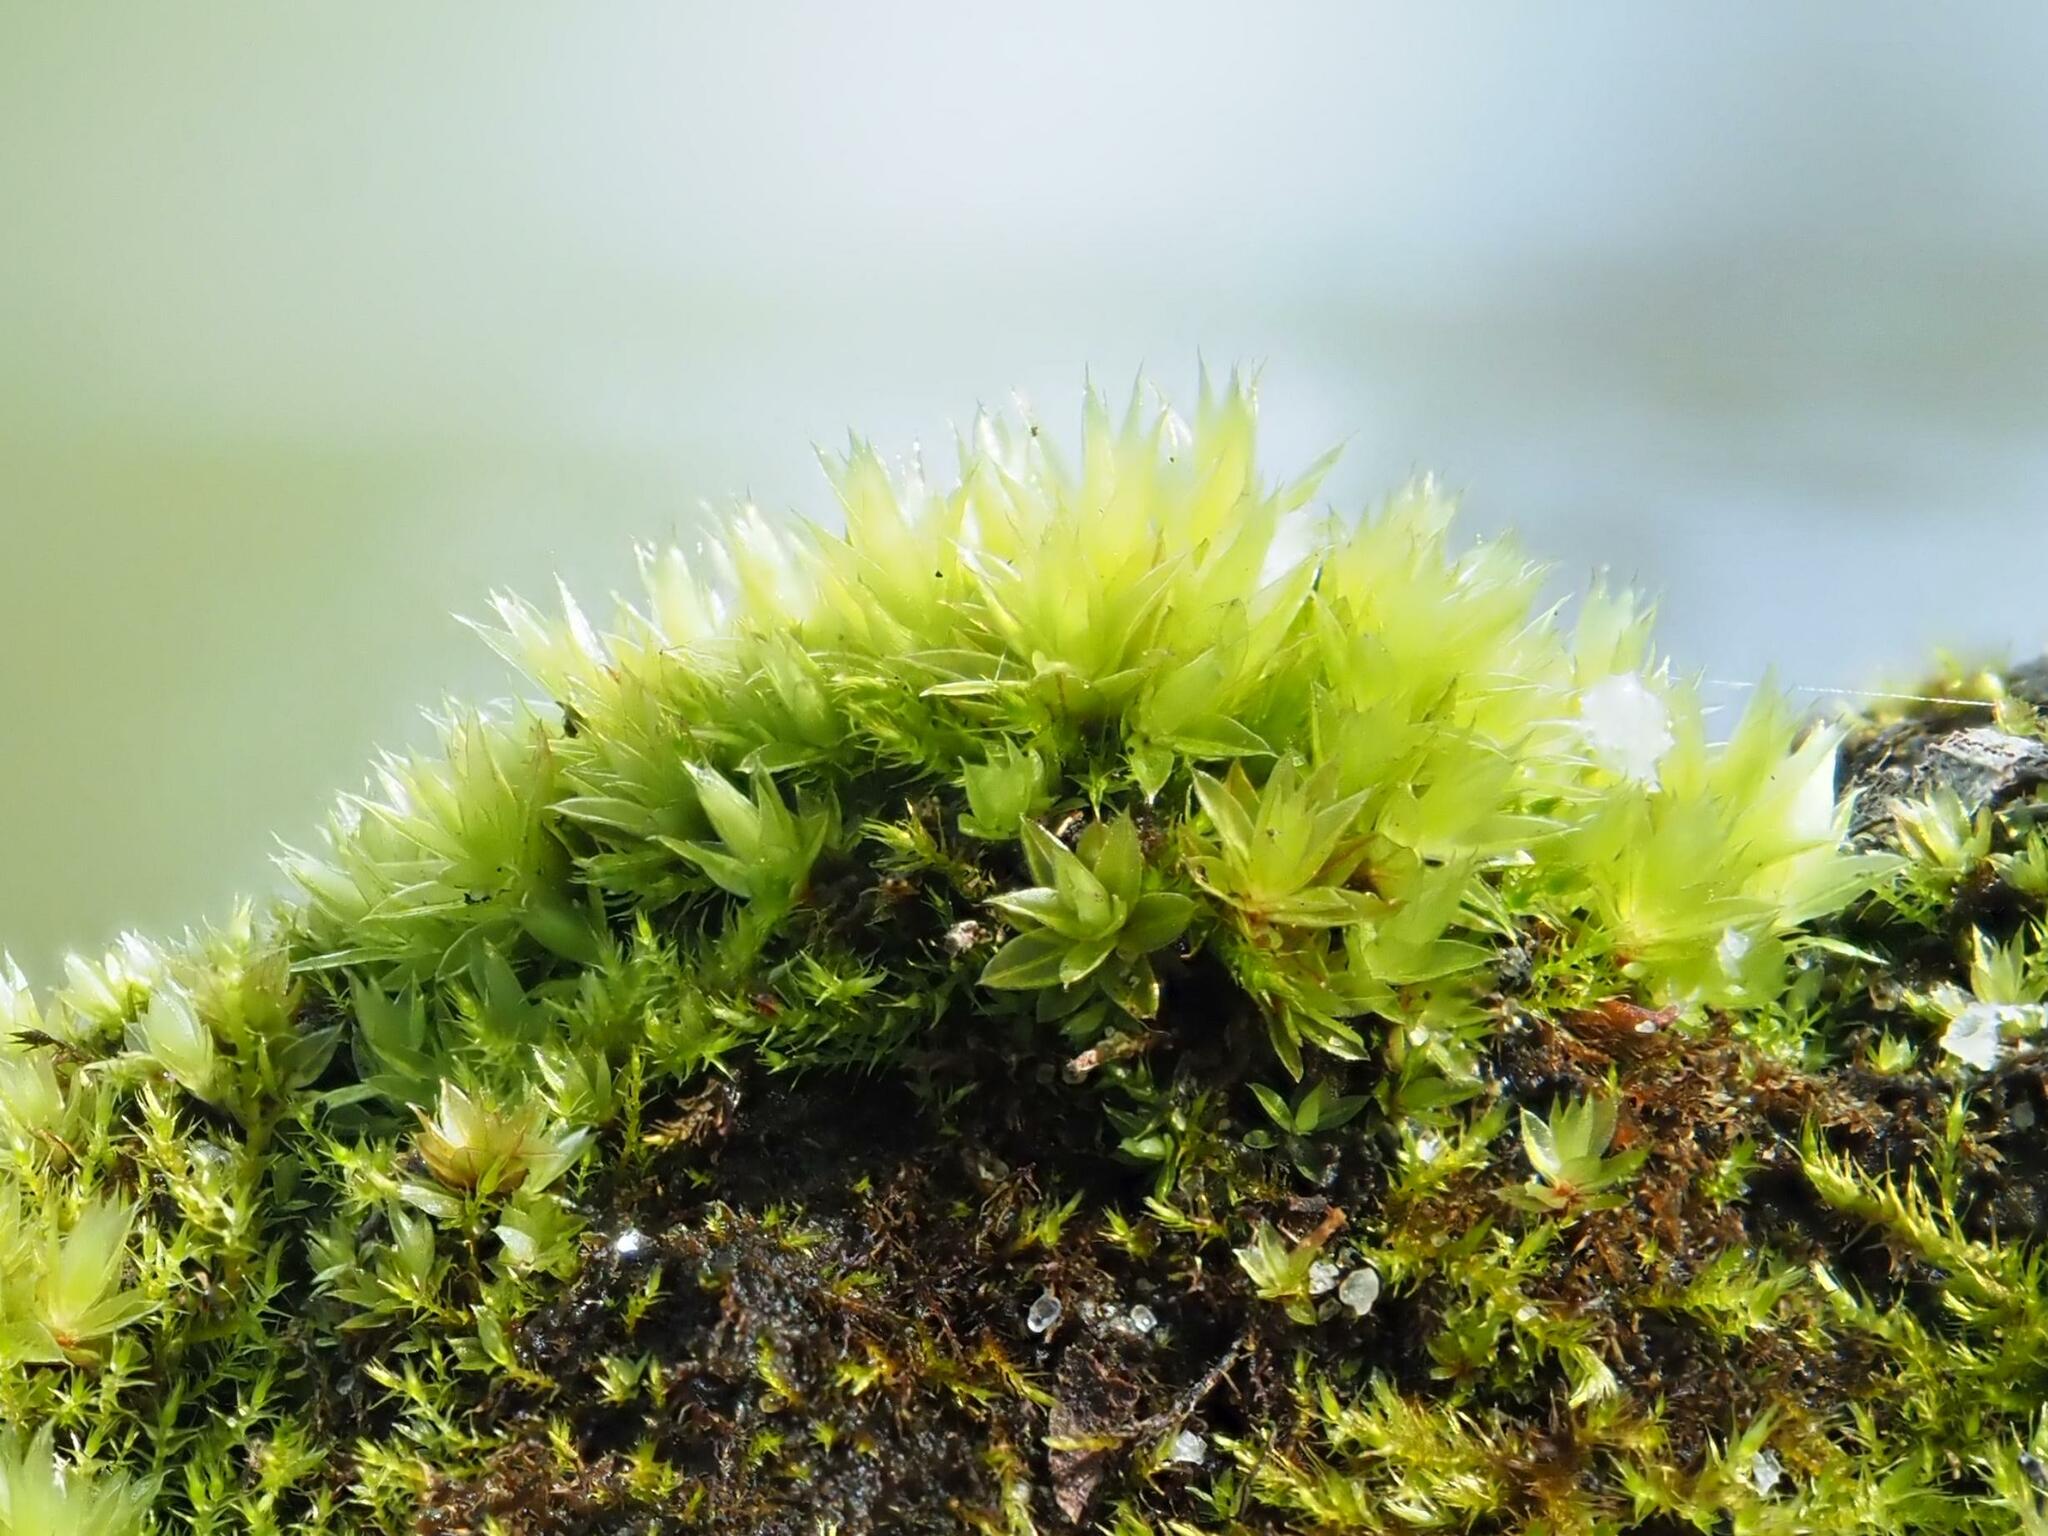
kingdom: Plantae
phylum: Bryophyta
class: Bryopsida
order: Bryales
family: Mniaceae
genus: Mnium
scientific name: Mnium hornum
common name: Swan's-neck leafy moss
